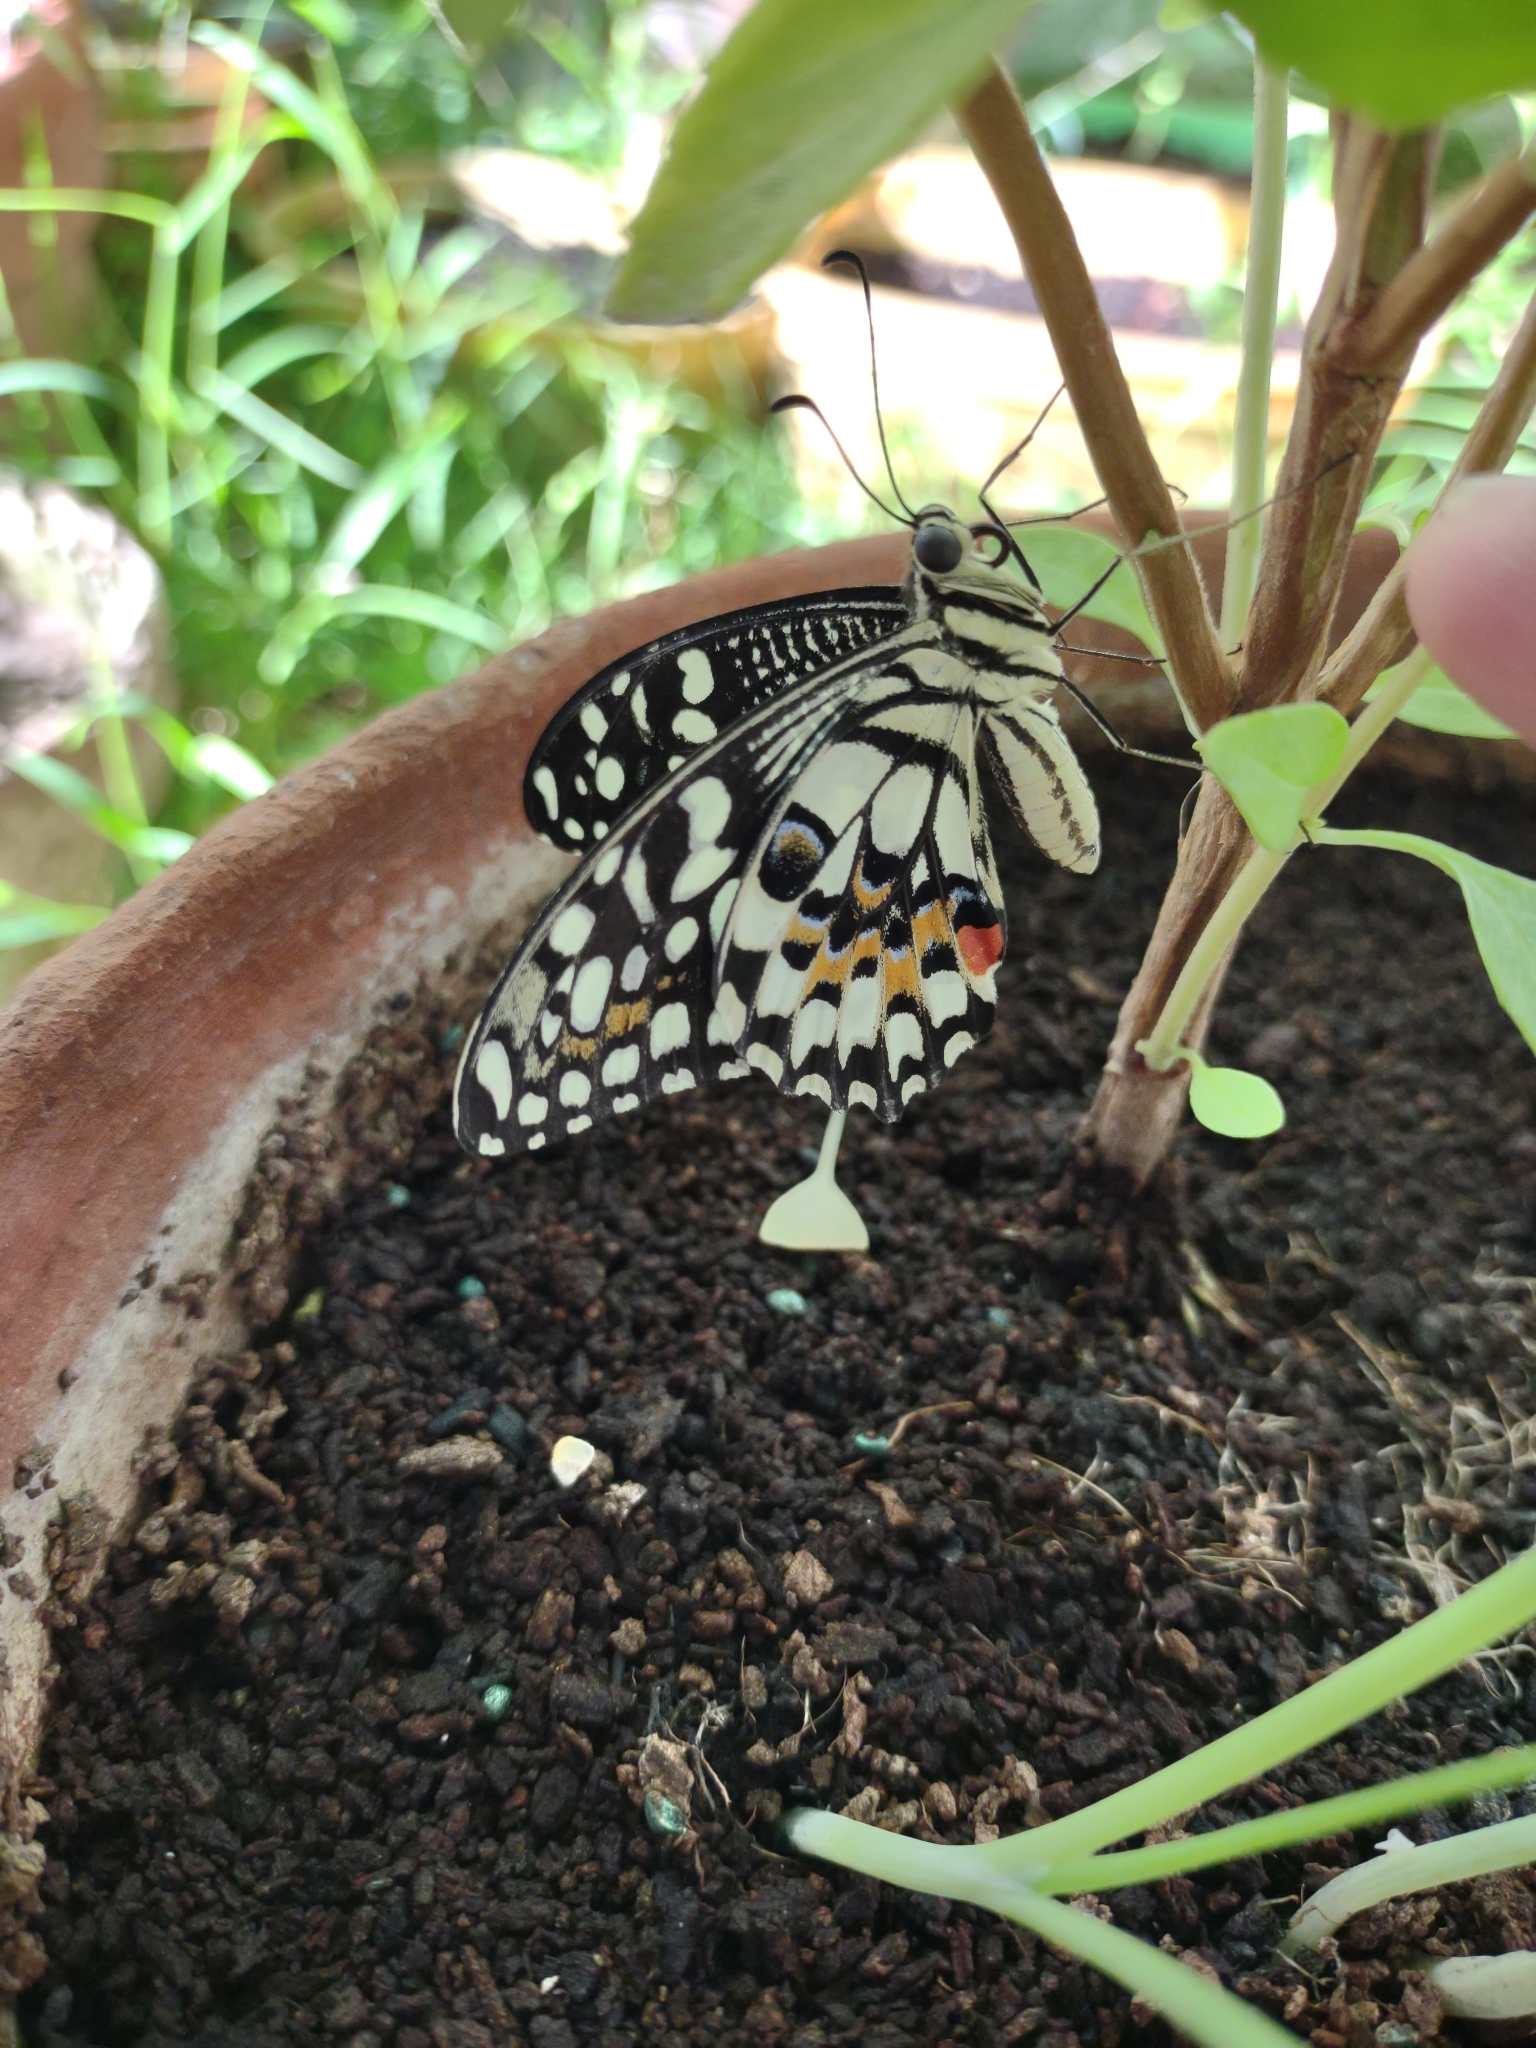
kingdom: Animalia
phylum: Arthropoda
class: Insecta
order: Lepidoptera
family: Papilionidae
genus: Papilio
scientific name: Papilio demoleus
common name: Lime butterfly
